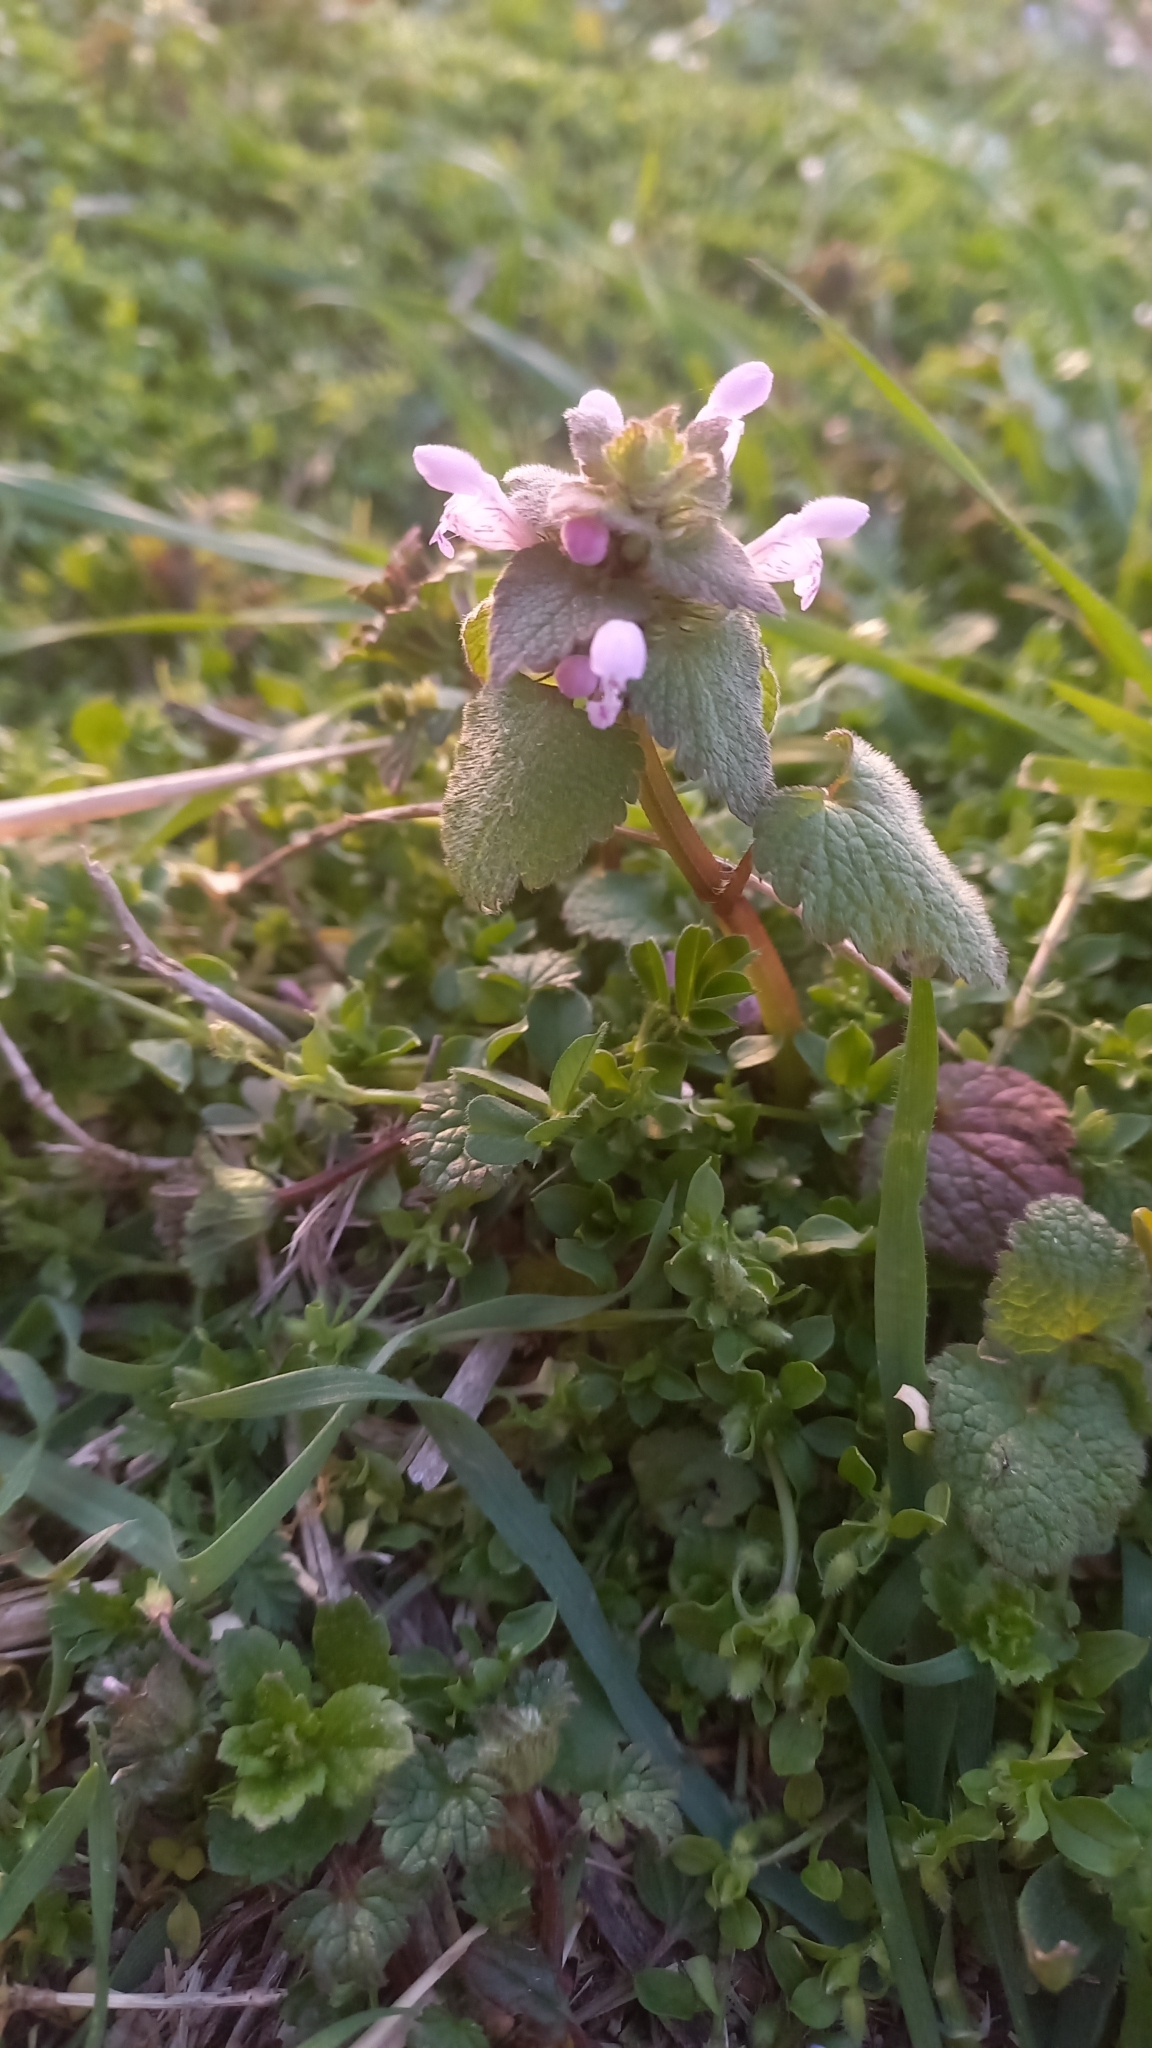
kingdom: Plantae
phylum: Tracheophyta
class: Magnoliopsida
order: Lamiales
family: Lamiaceae
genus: Lamium
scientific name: Lamium purpureum
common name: Red dead-nettle
